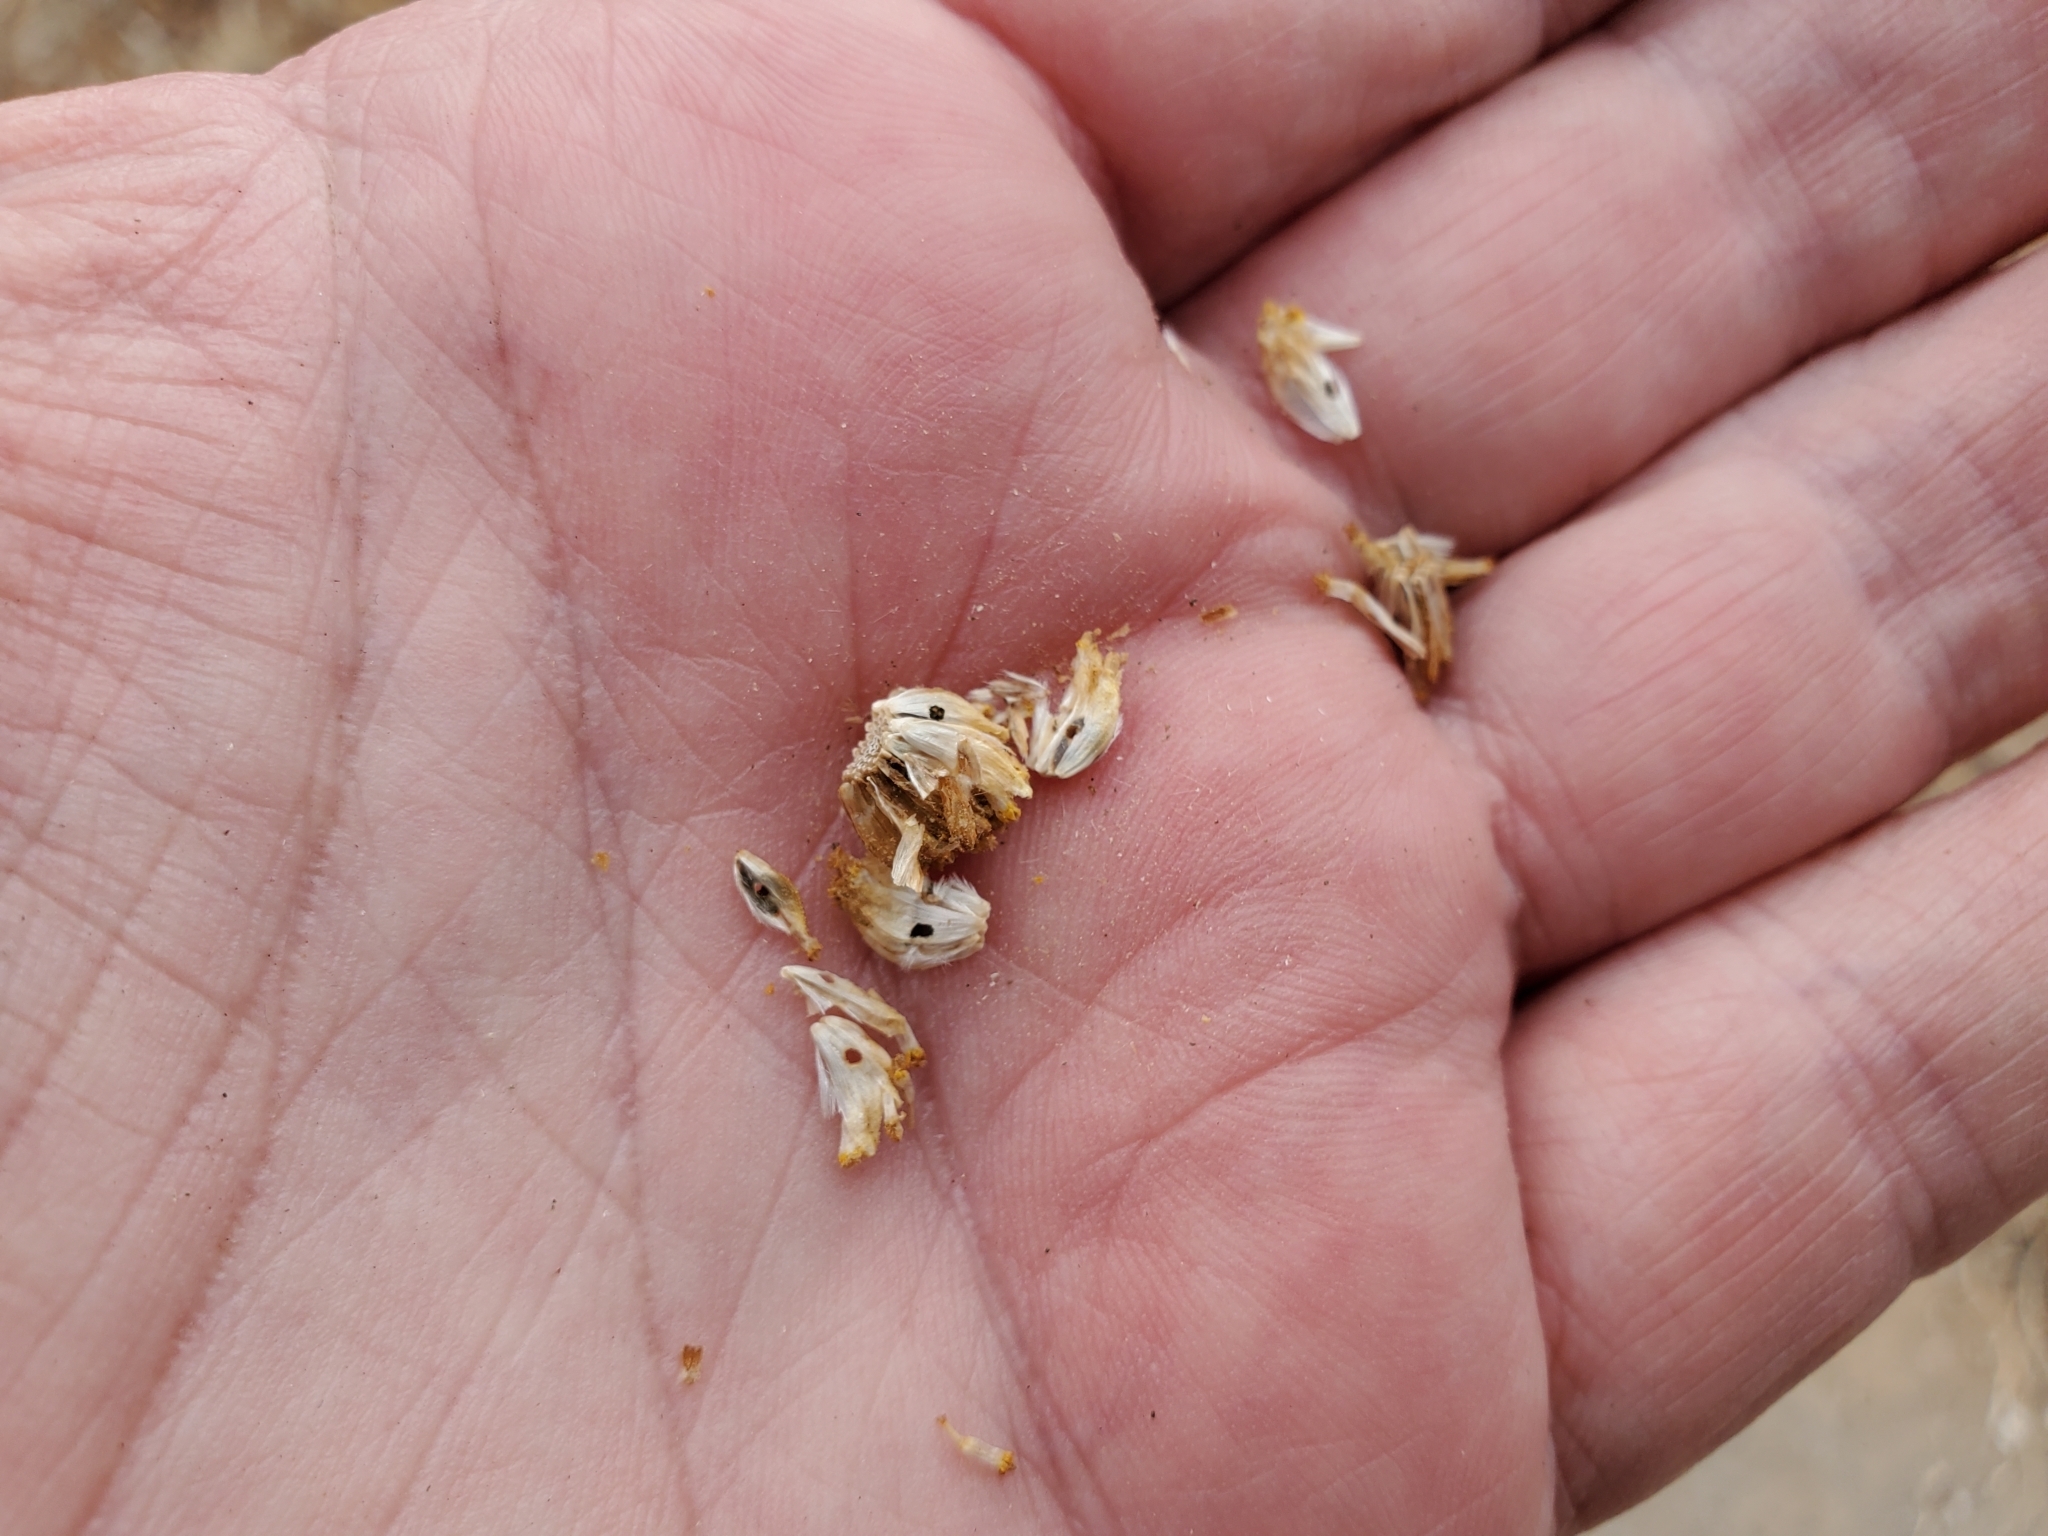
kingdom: Plantae
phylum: Tracheophyta
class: Magnoliopsida
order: Asterales
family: Asteraceae
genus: Encelia
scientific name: Encelia farinosa
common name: Brittlebush
